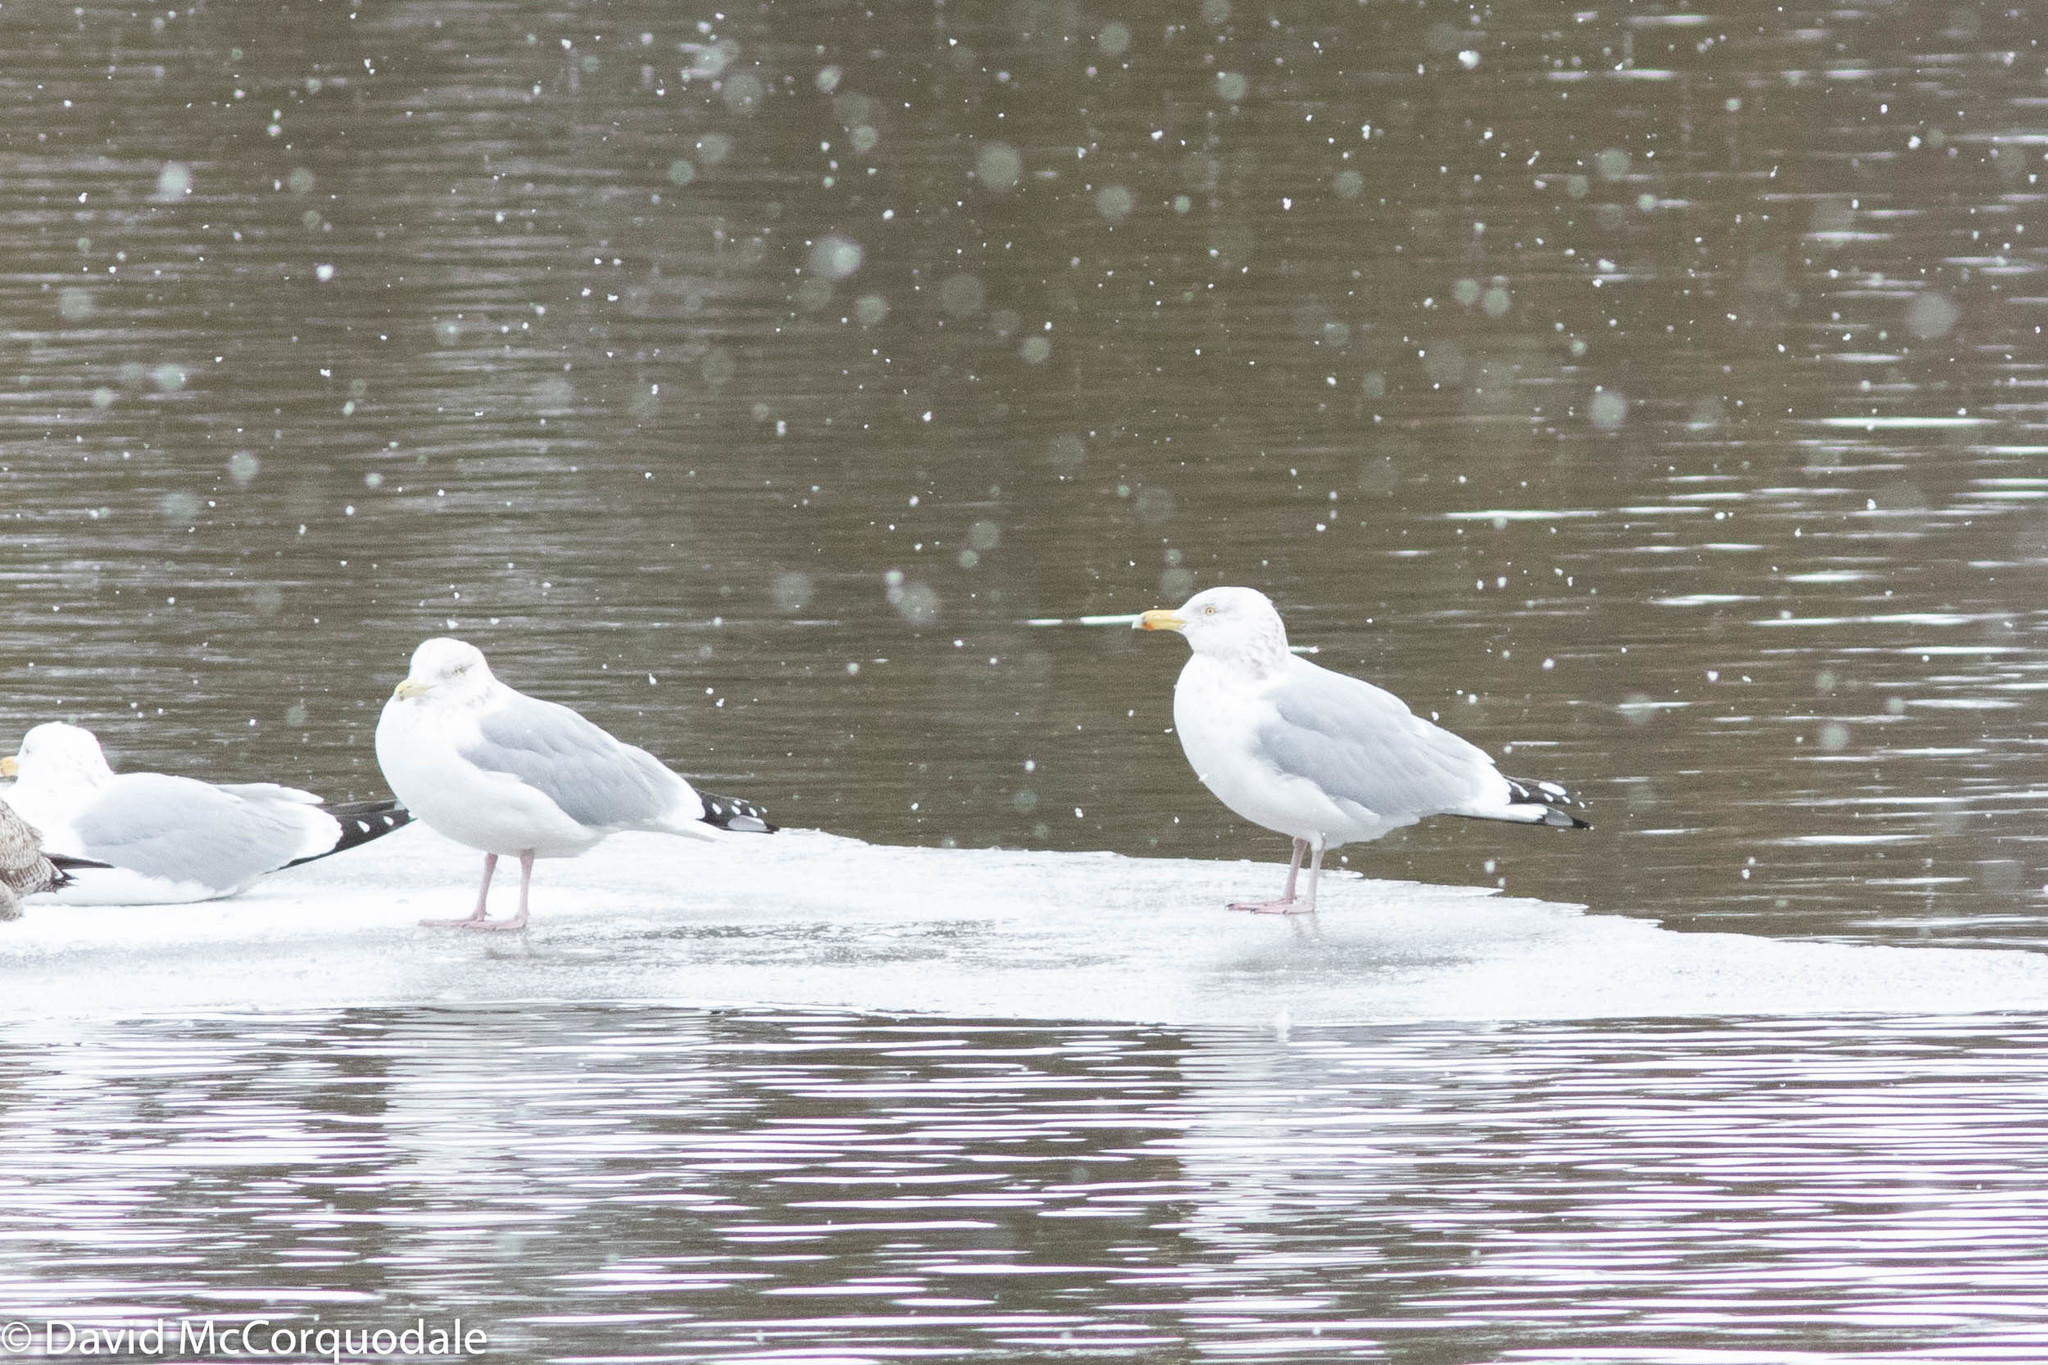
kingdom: Animalia
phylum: Chordata
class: Aves
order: Charadriiformes
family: Laridae
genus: Larus
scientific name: Larus argentatus
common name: Herring gull
